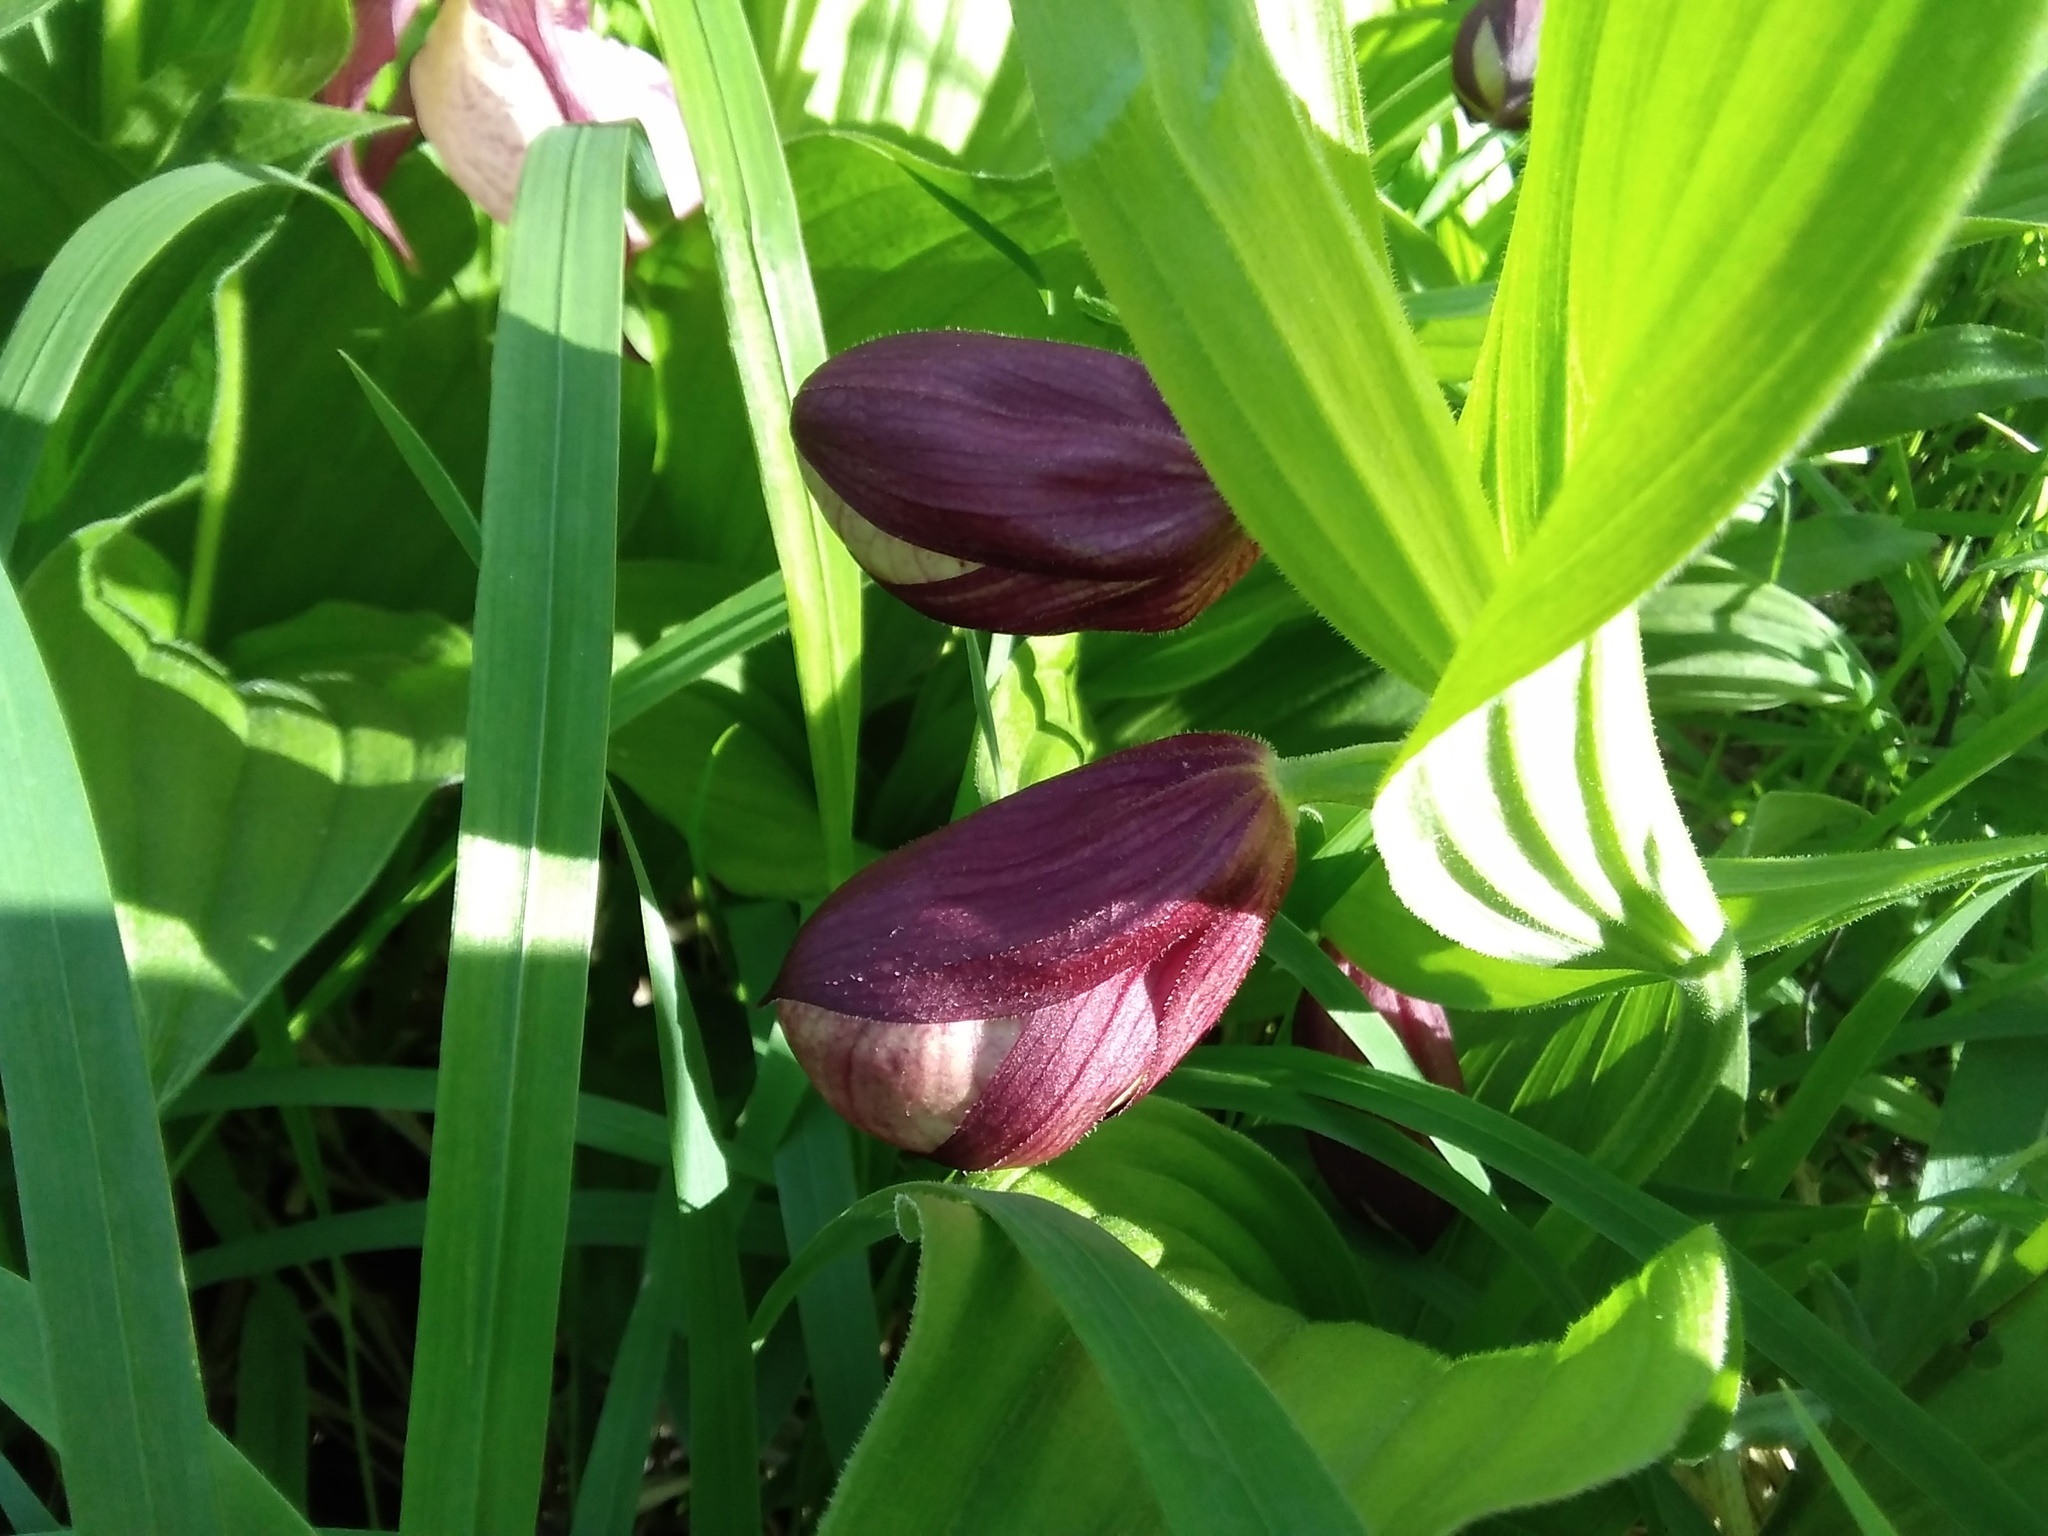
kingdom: Plantae
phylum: Tracheophyta
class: Liliopsida
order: Asparagales
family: Orchidaceae
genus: Cypripedium
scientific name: Cypripedium ventricosum
